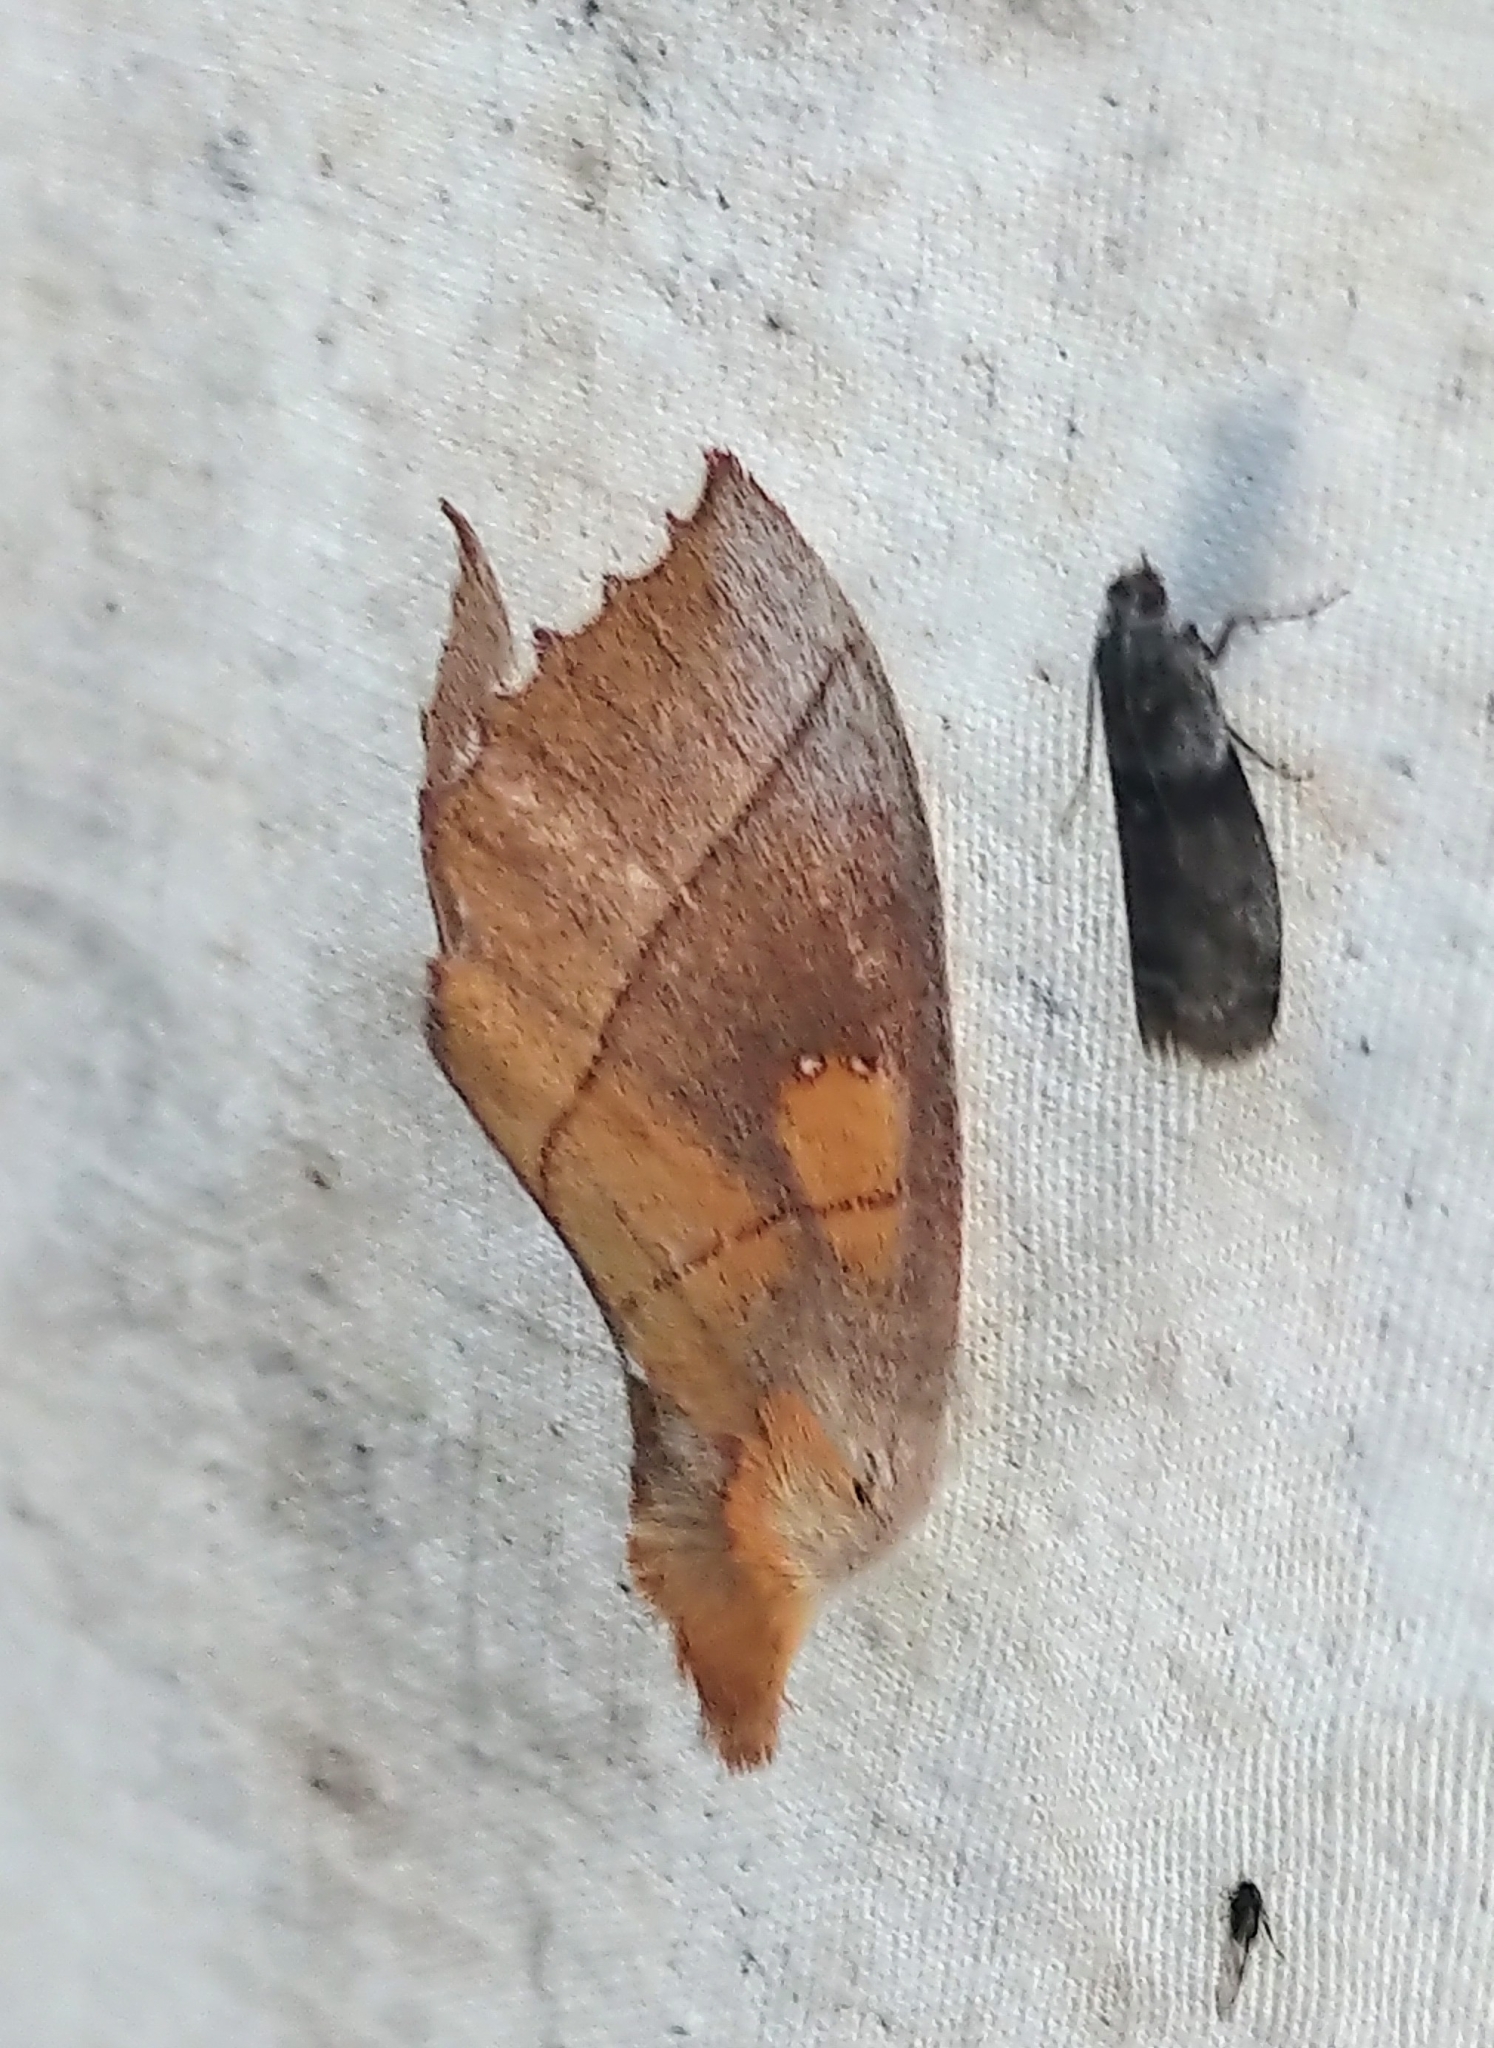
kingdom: Animalia
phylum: Arthropoda
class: Insecta
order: Lepidoptera
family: Notodontidae
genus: Nadata
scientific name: Nadata gibbosa
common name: White-dotted prominent
